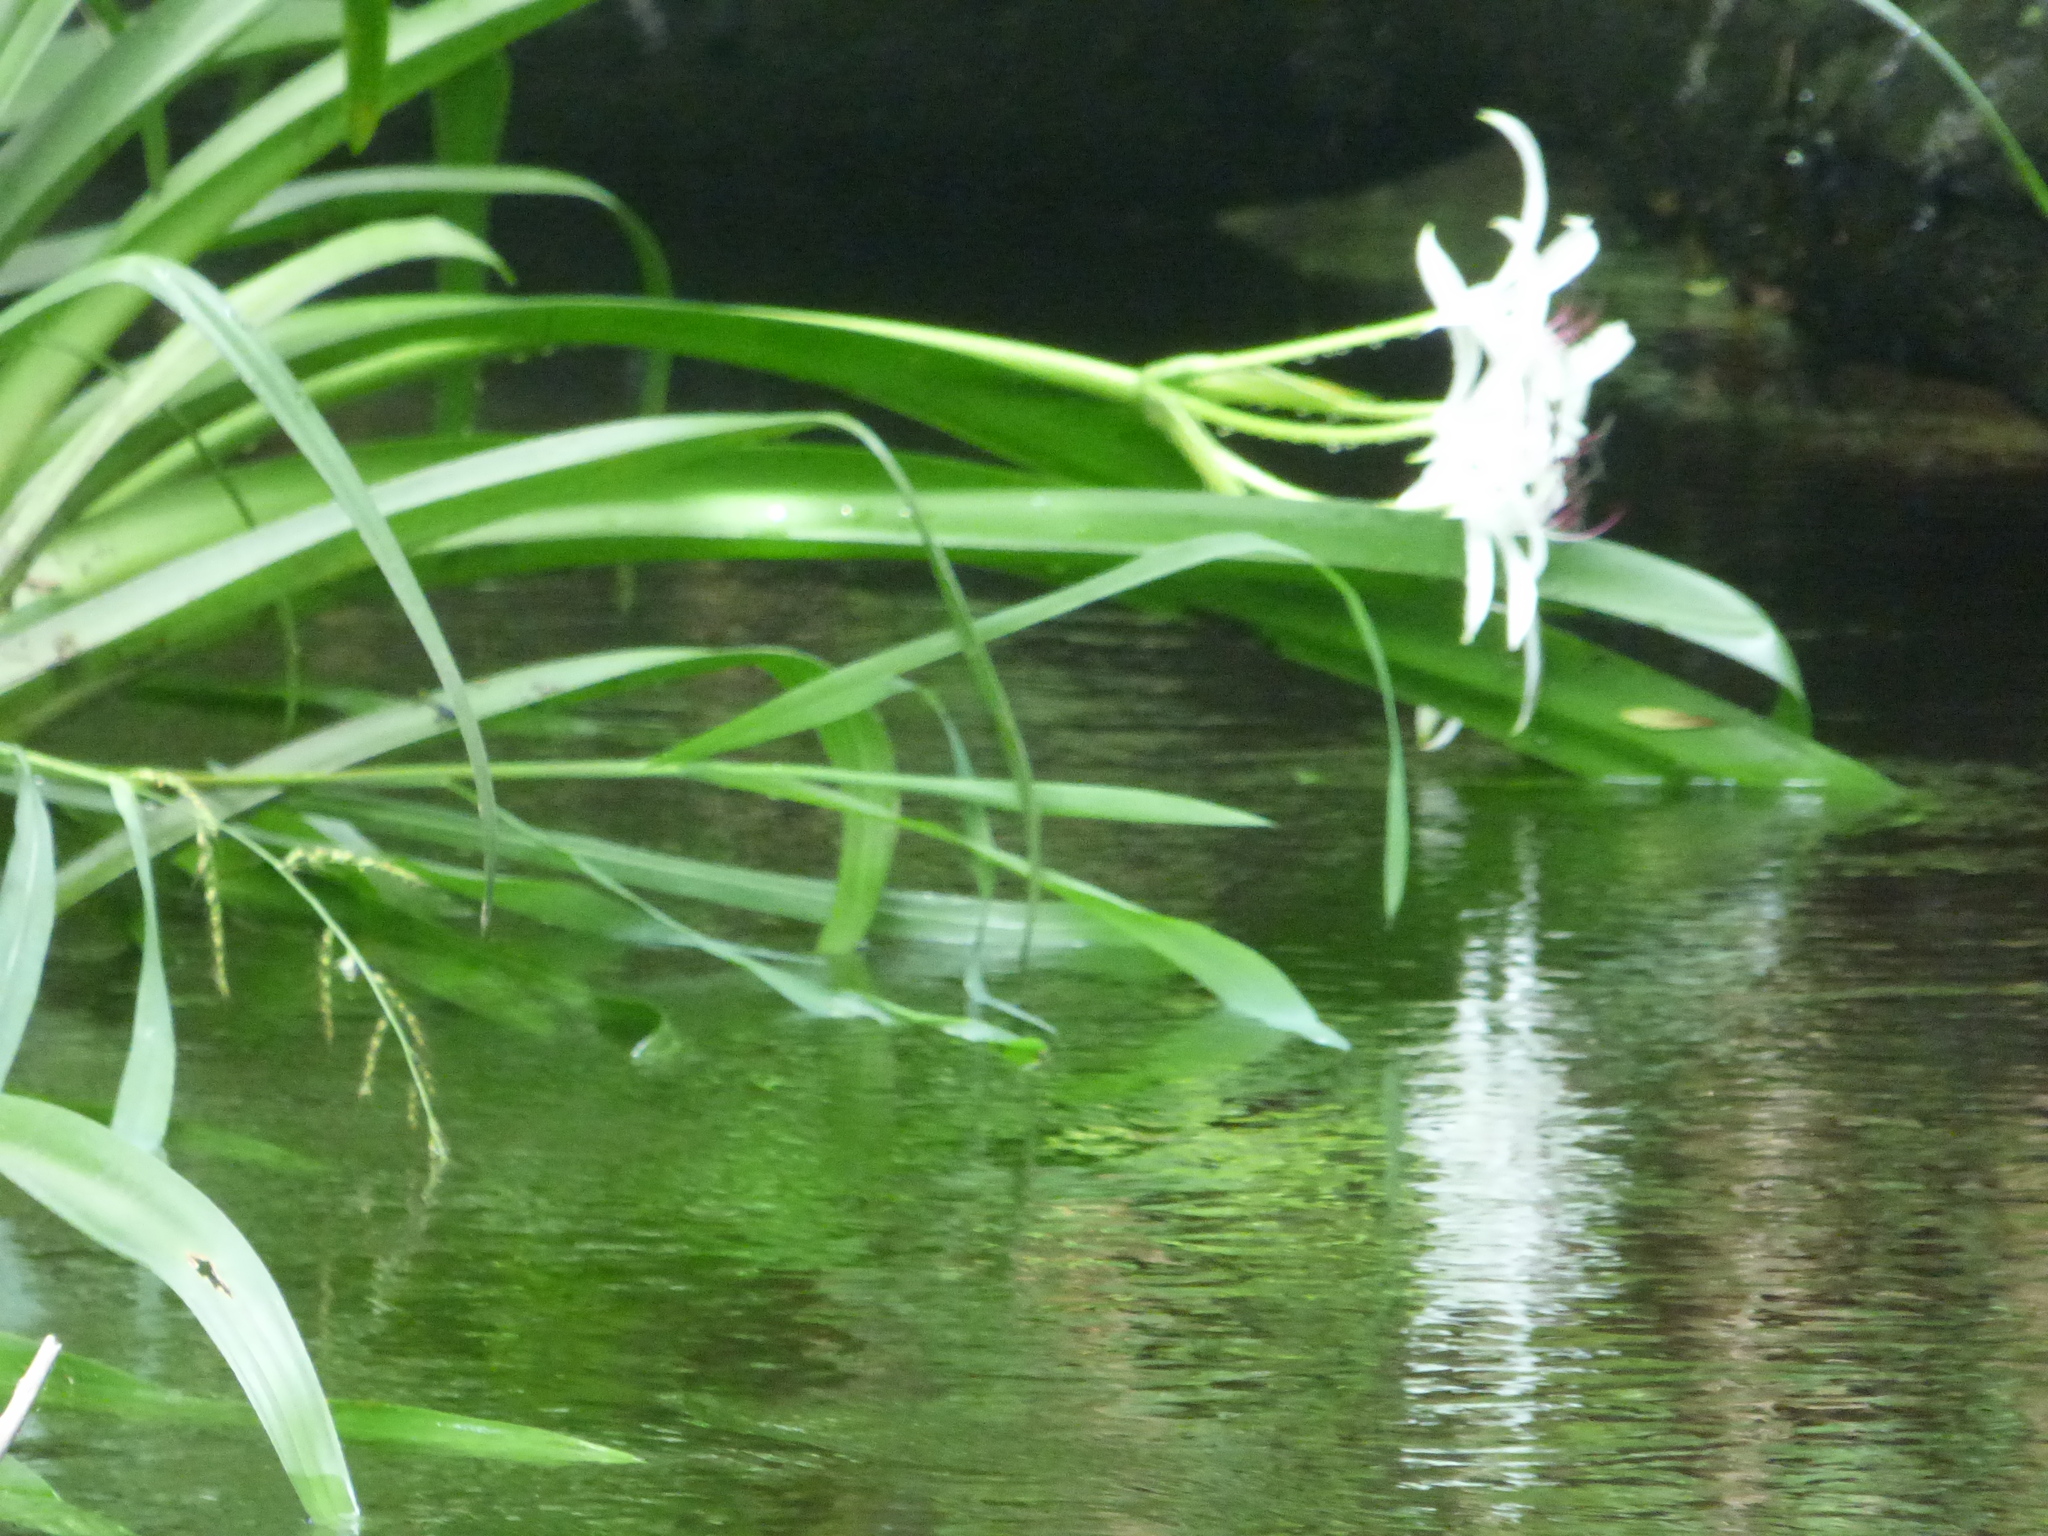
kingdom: Plantae
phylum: Tracheophyta
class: Liliopsida
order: Asparagales
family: Amaryllidaceae
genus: Crinum
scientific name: Crinum americanum
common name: Florida swamp-lily
